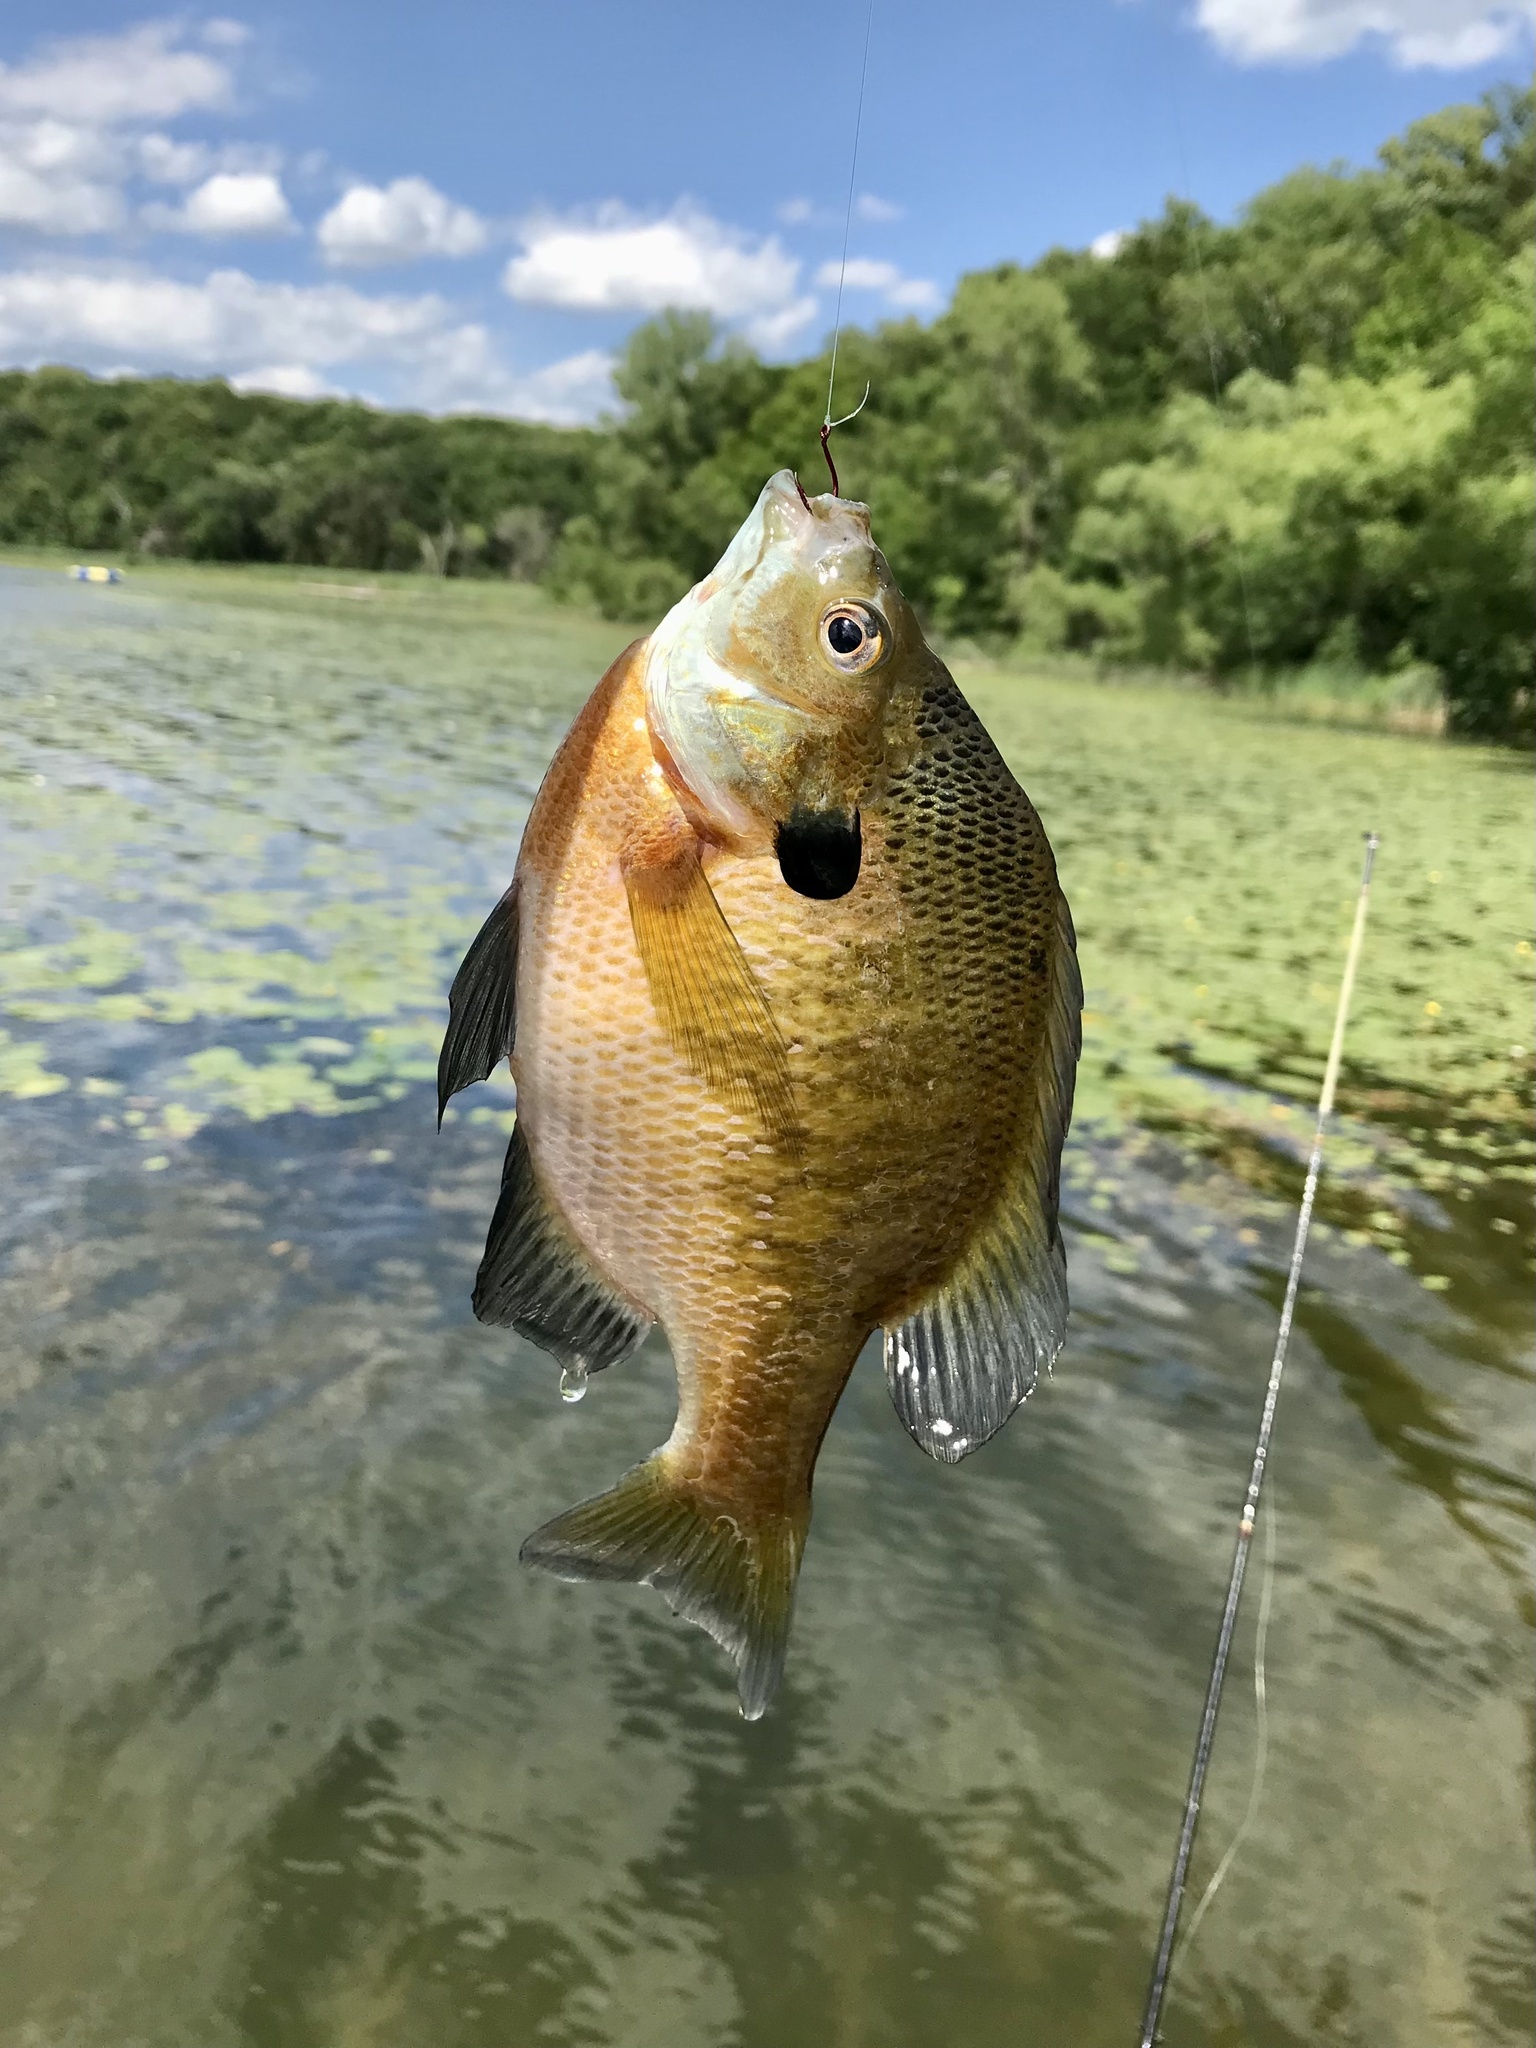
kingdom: Animalia
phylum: Chordata
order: Perciformes
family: Centrarchidae
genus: Lepomis
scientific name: Lepomis macrochirus
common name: Bluegill
